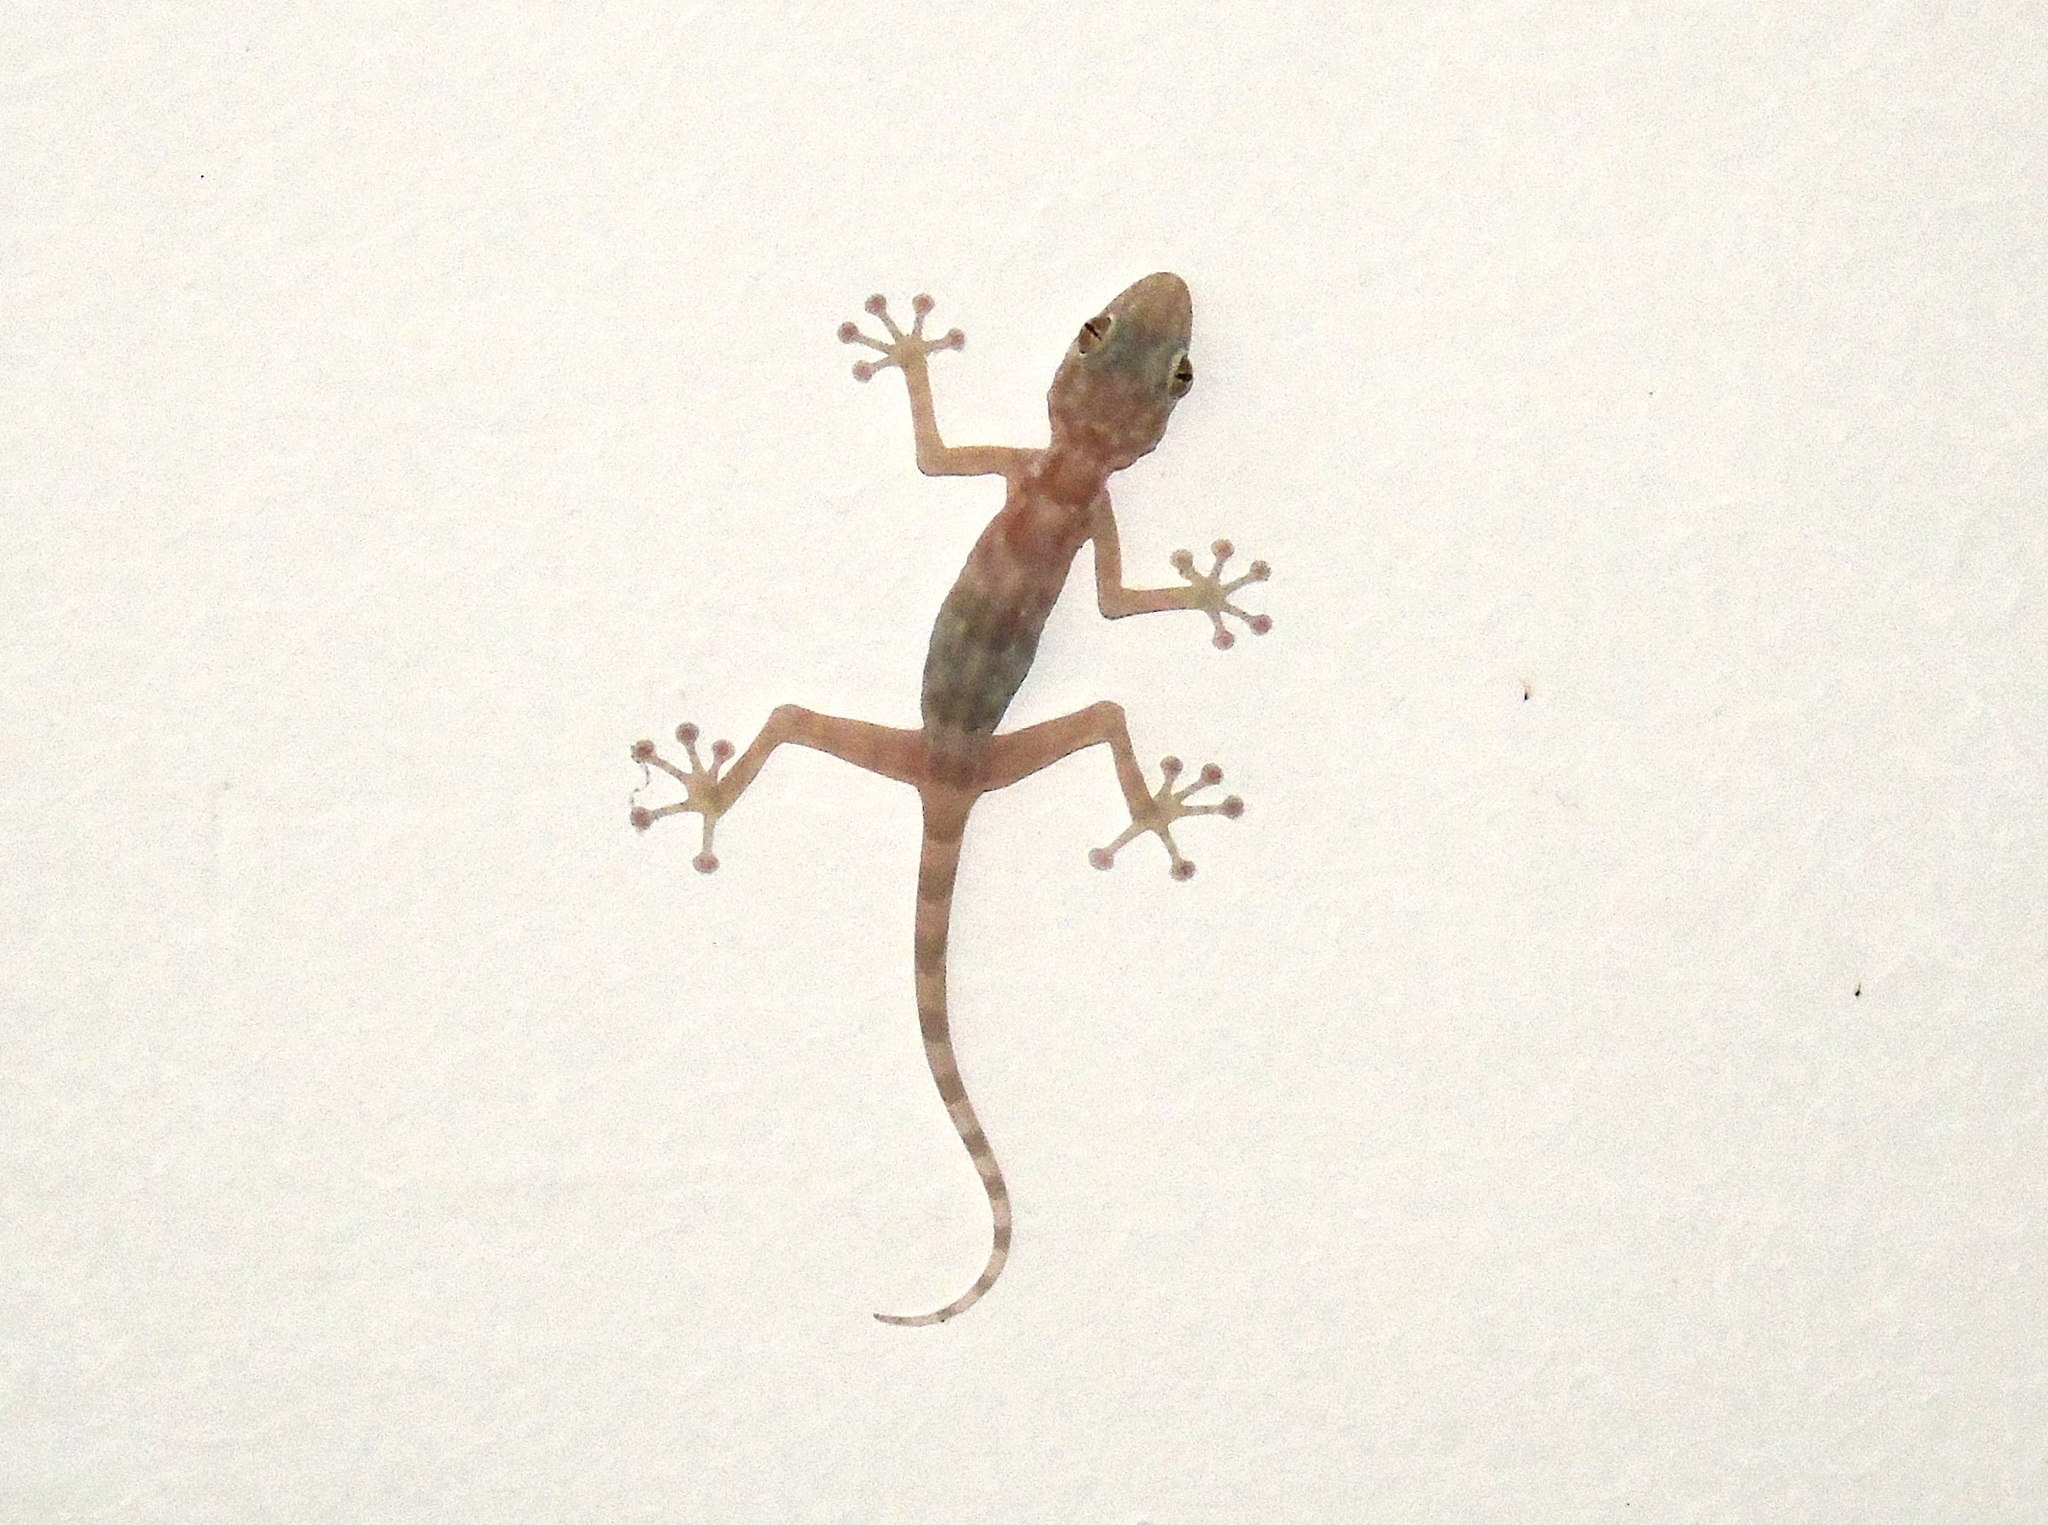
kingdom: Animalia
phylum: Chordata
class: Squamata
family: Phyllodactylidae
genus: Ptyodactylus
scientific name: Ptyodactylus hasselquistii
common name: Hasselquist’s fan-footed gecko
